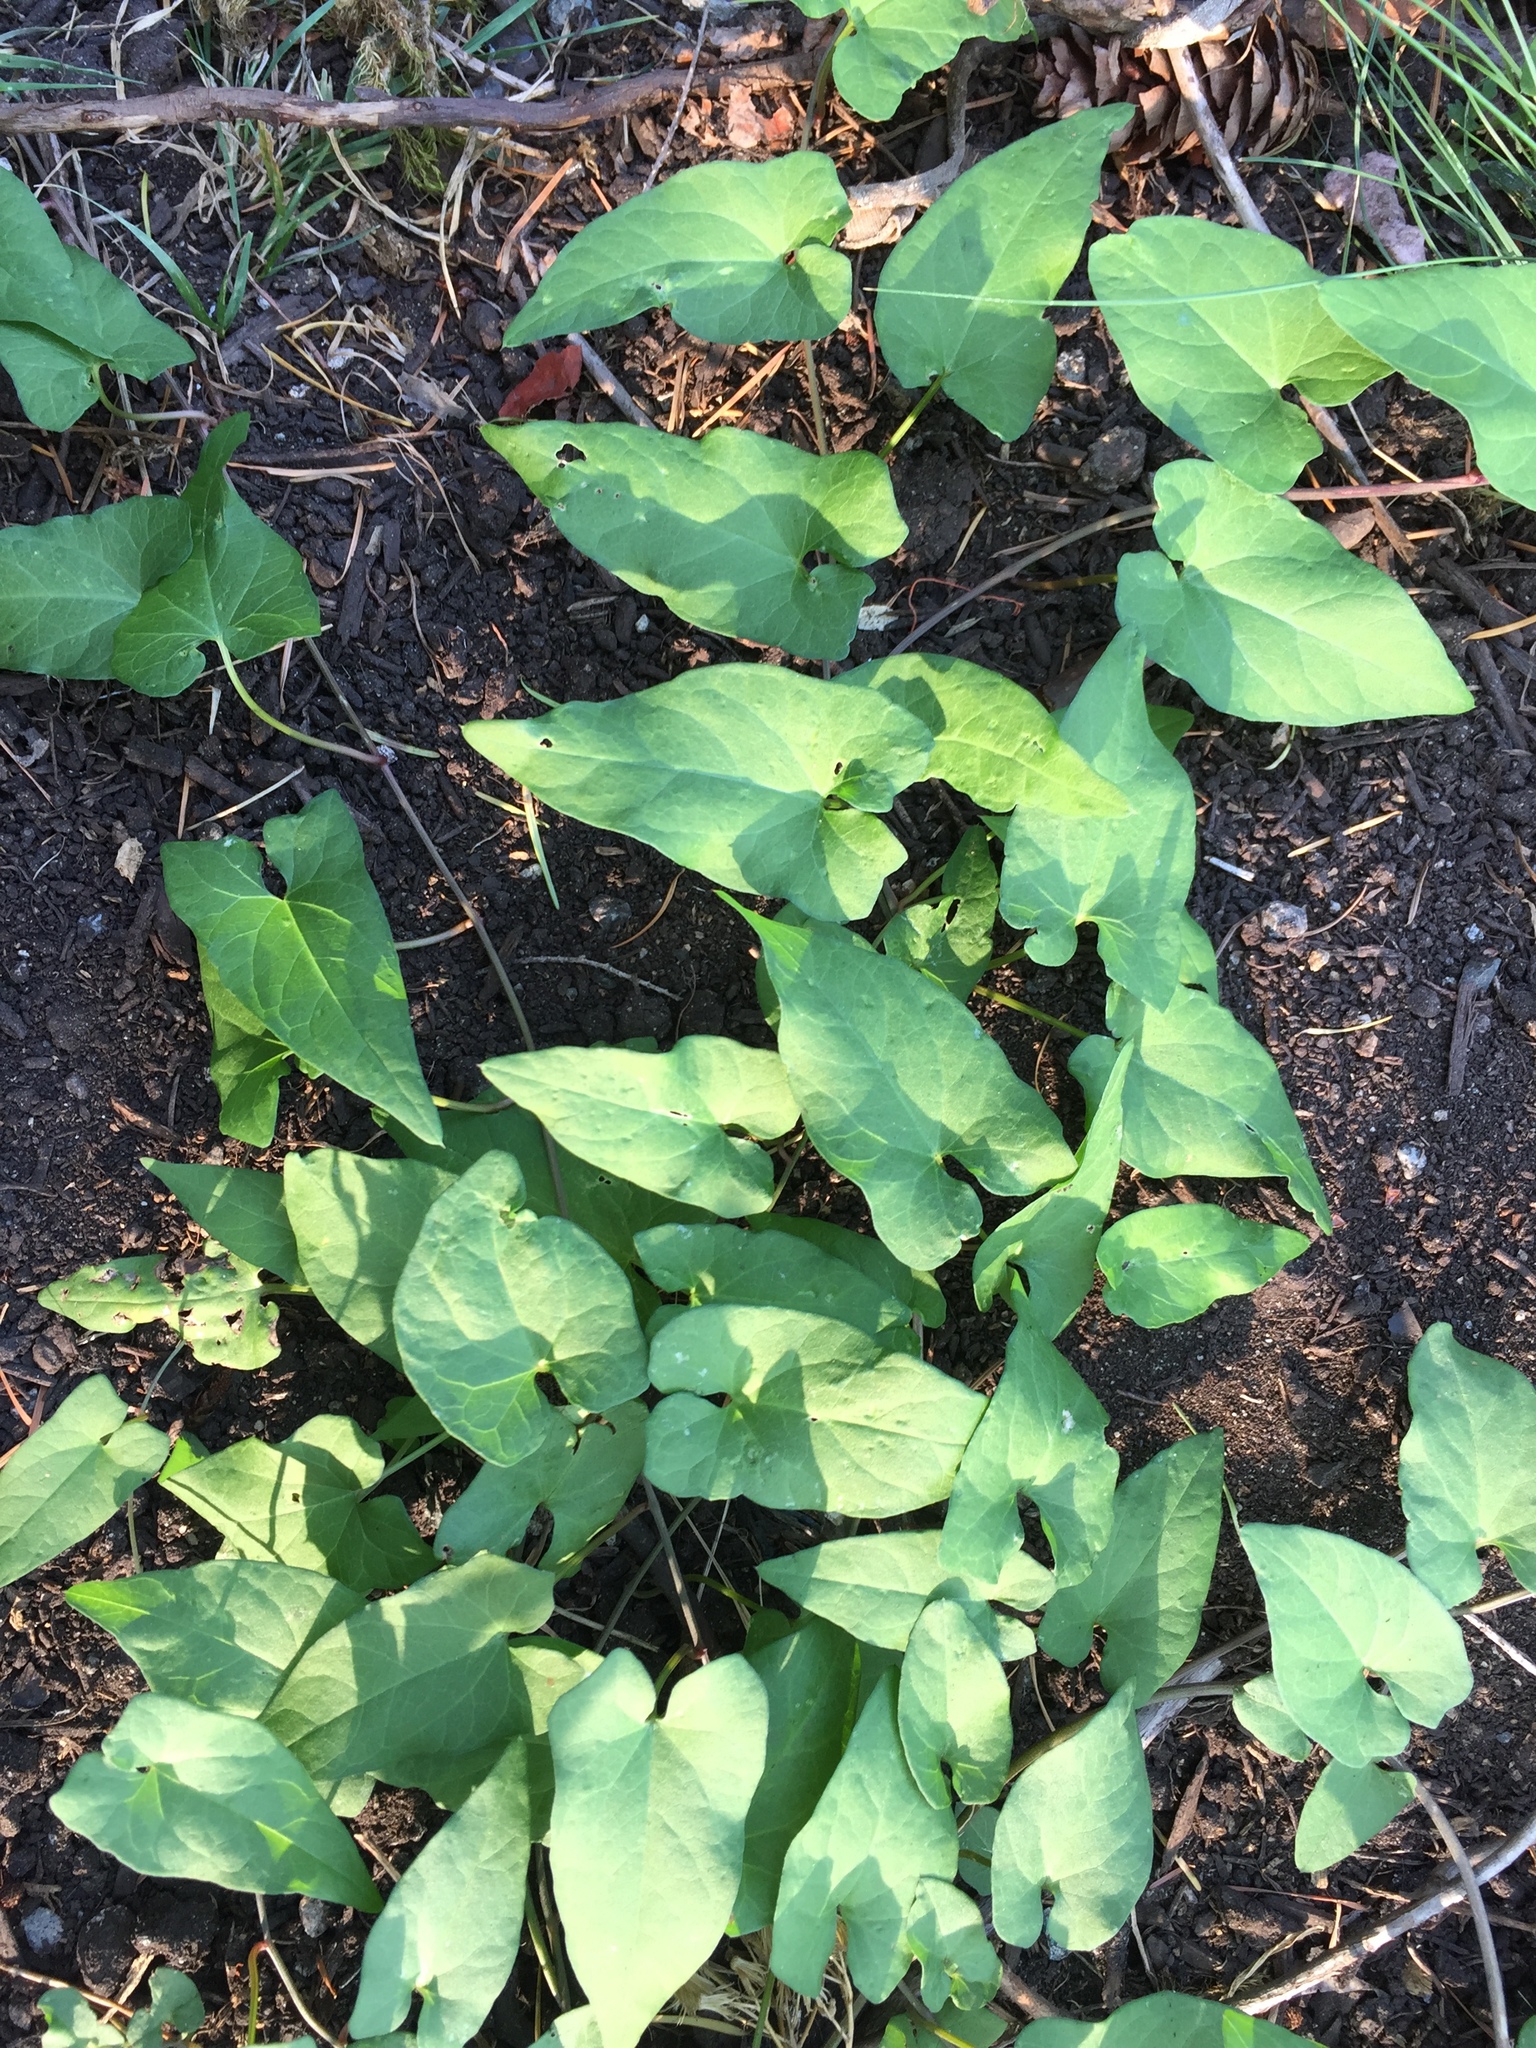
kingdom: Plantae
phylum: Tracheophyta
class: Magnoliopsida
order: Solanales
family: Convolvulaceae
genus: Calystegia
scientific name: Calystegia sepium
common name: Hedge bindweed
